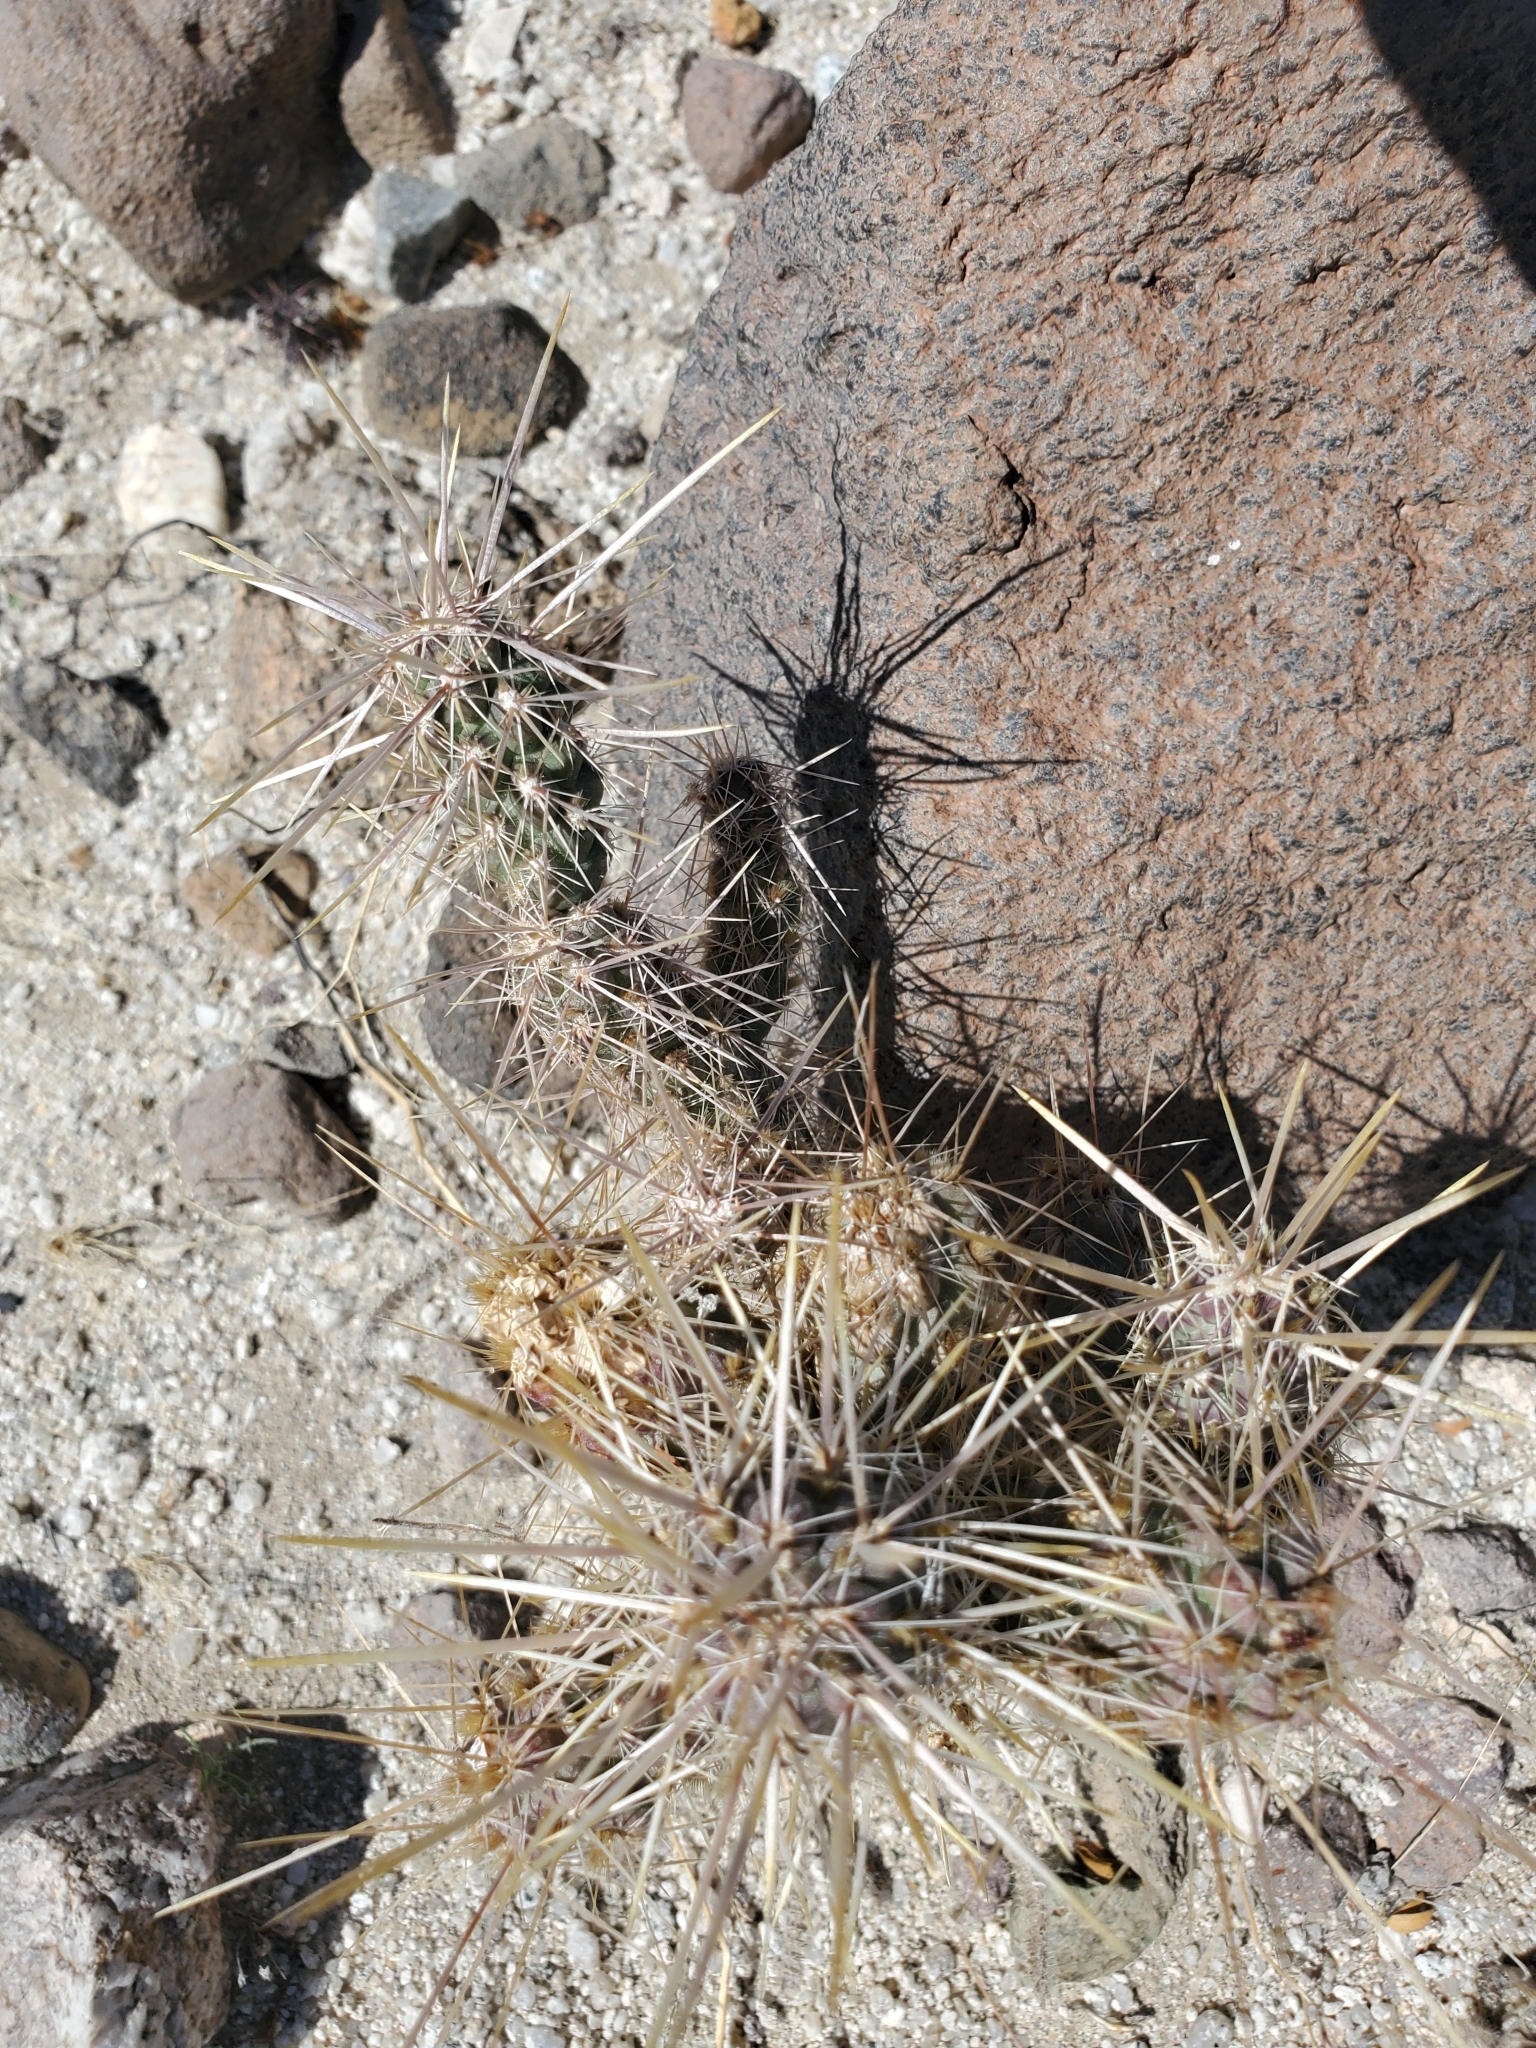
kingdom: Plantae
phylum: Tracheophyta
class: Magnoliopsida
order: Caryophyllales
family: Cactaceae
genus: Cylindropuntia
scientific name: Cylindropuntia echinocarpa
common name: Ground cholla
